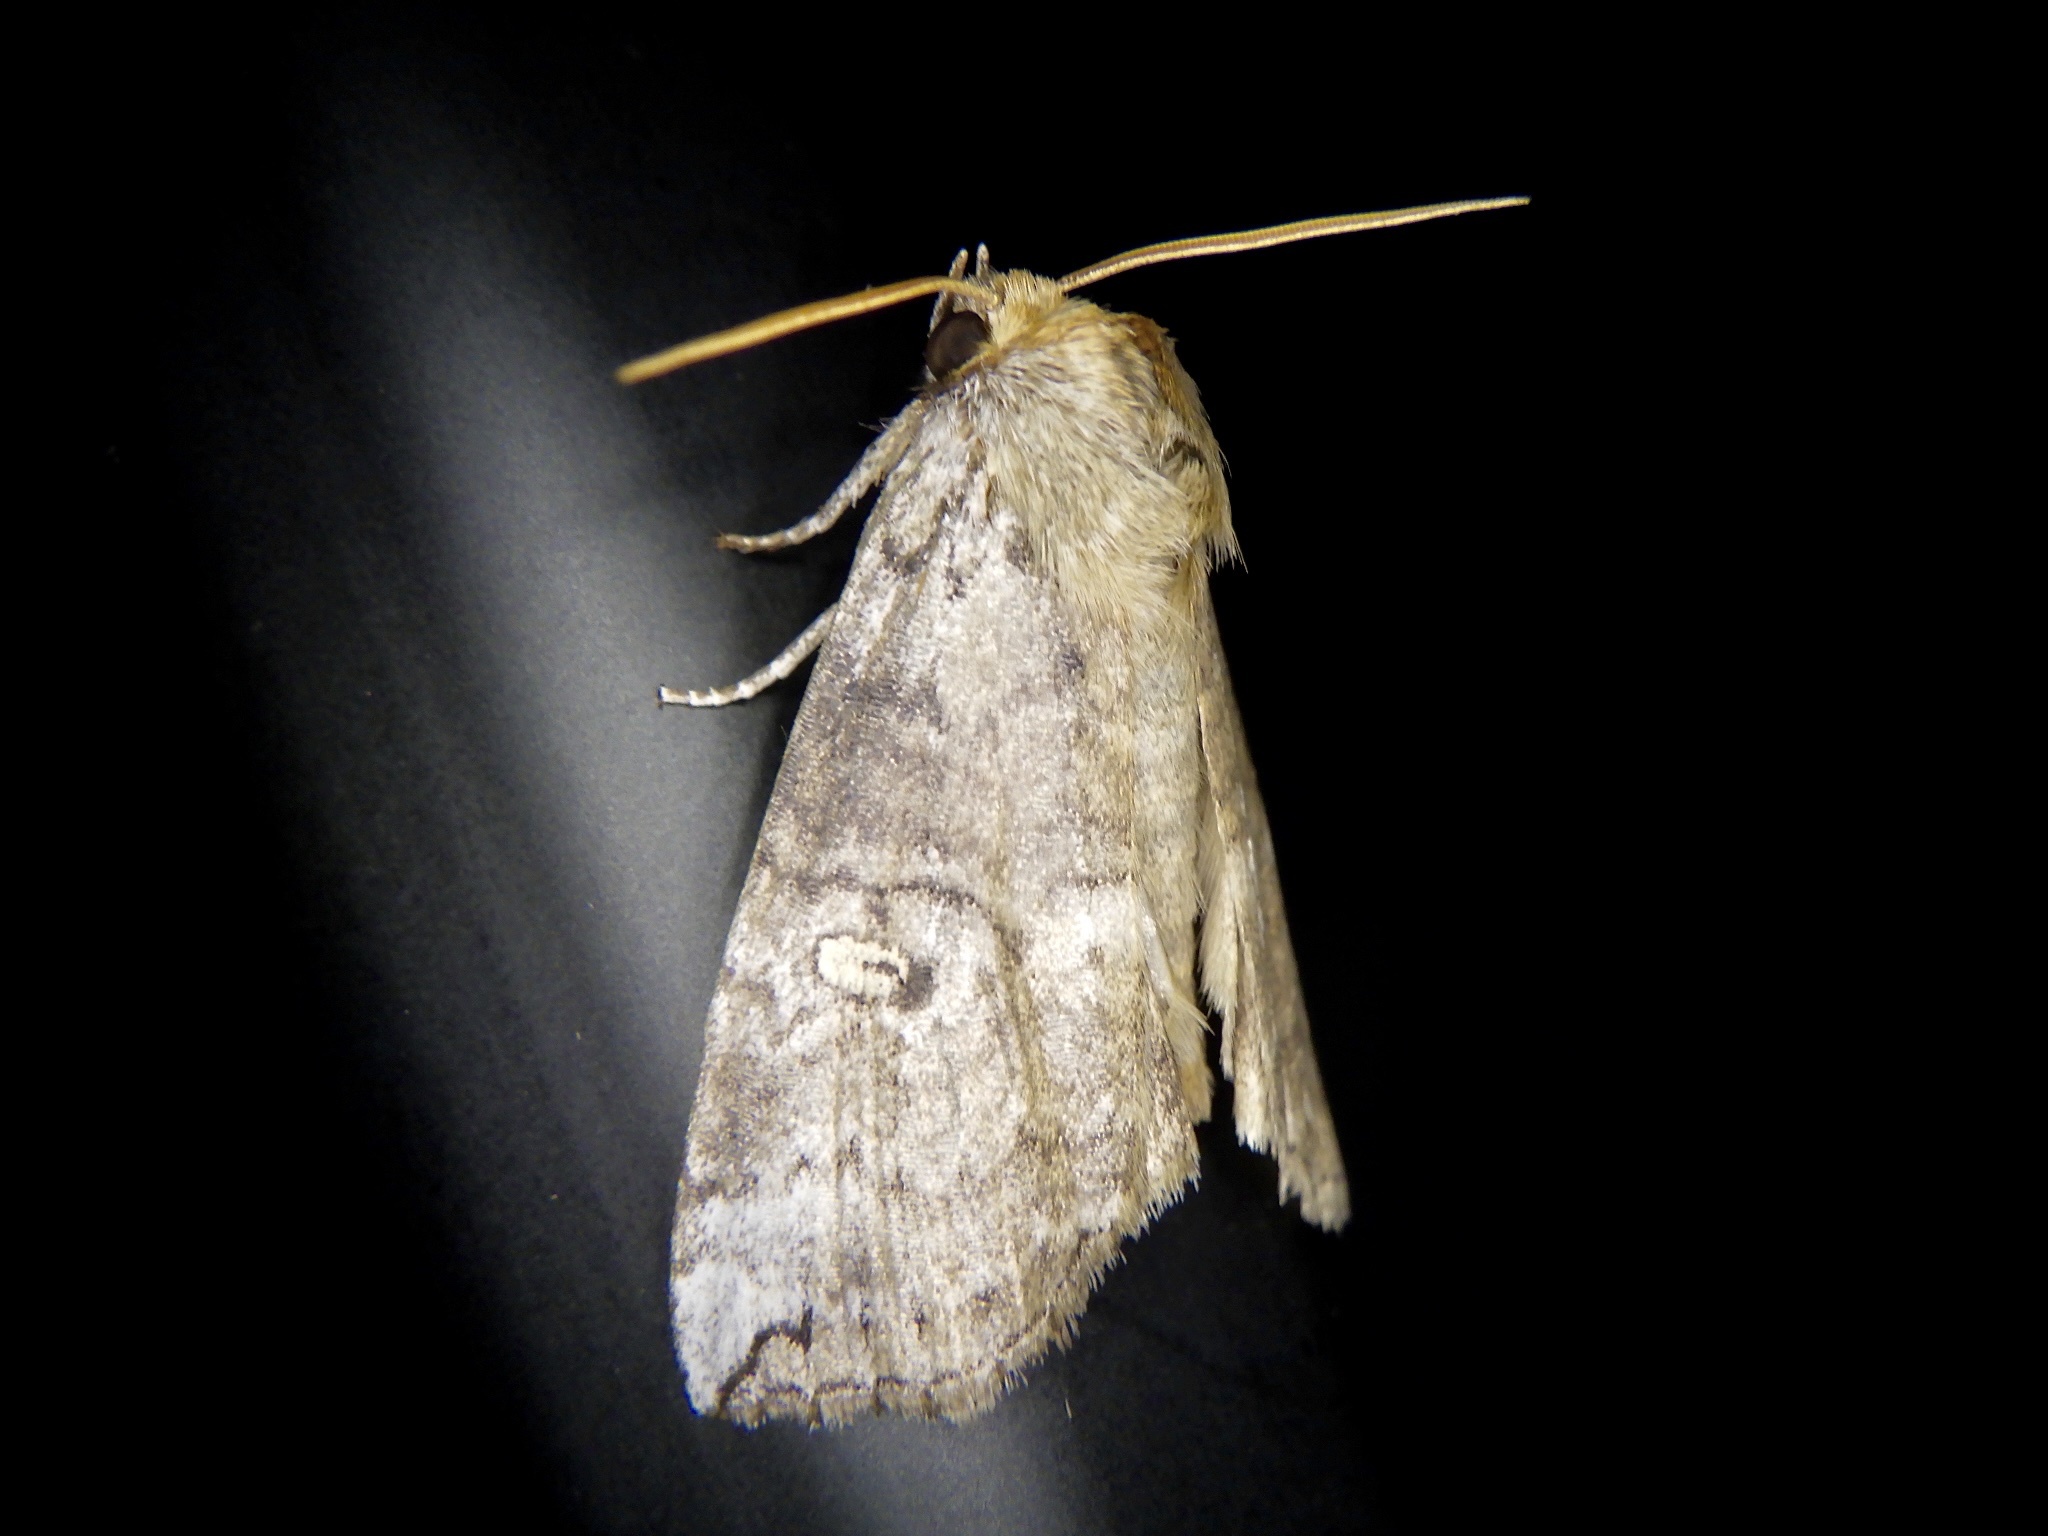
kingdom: Animalia
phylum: Arthropoda
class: Insecta
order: Lepidoptera
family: Drepanidae
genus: Tethea
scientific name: Tethea ampliata
